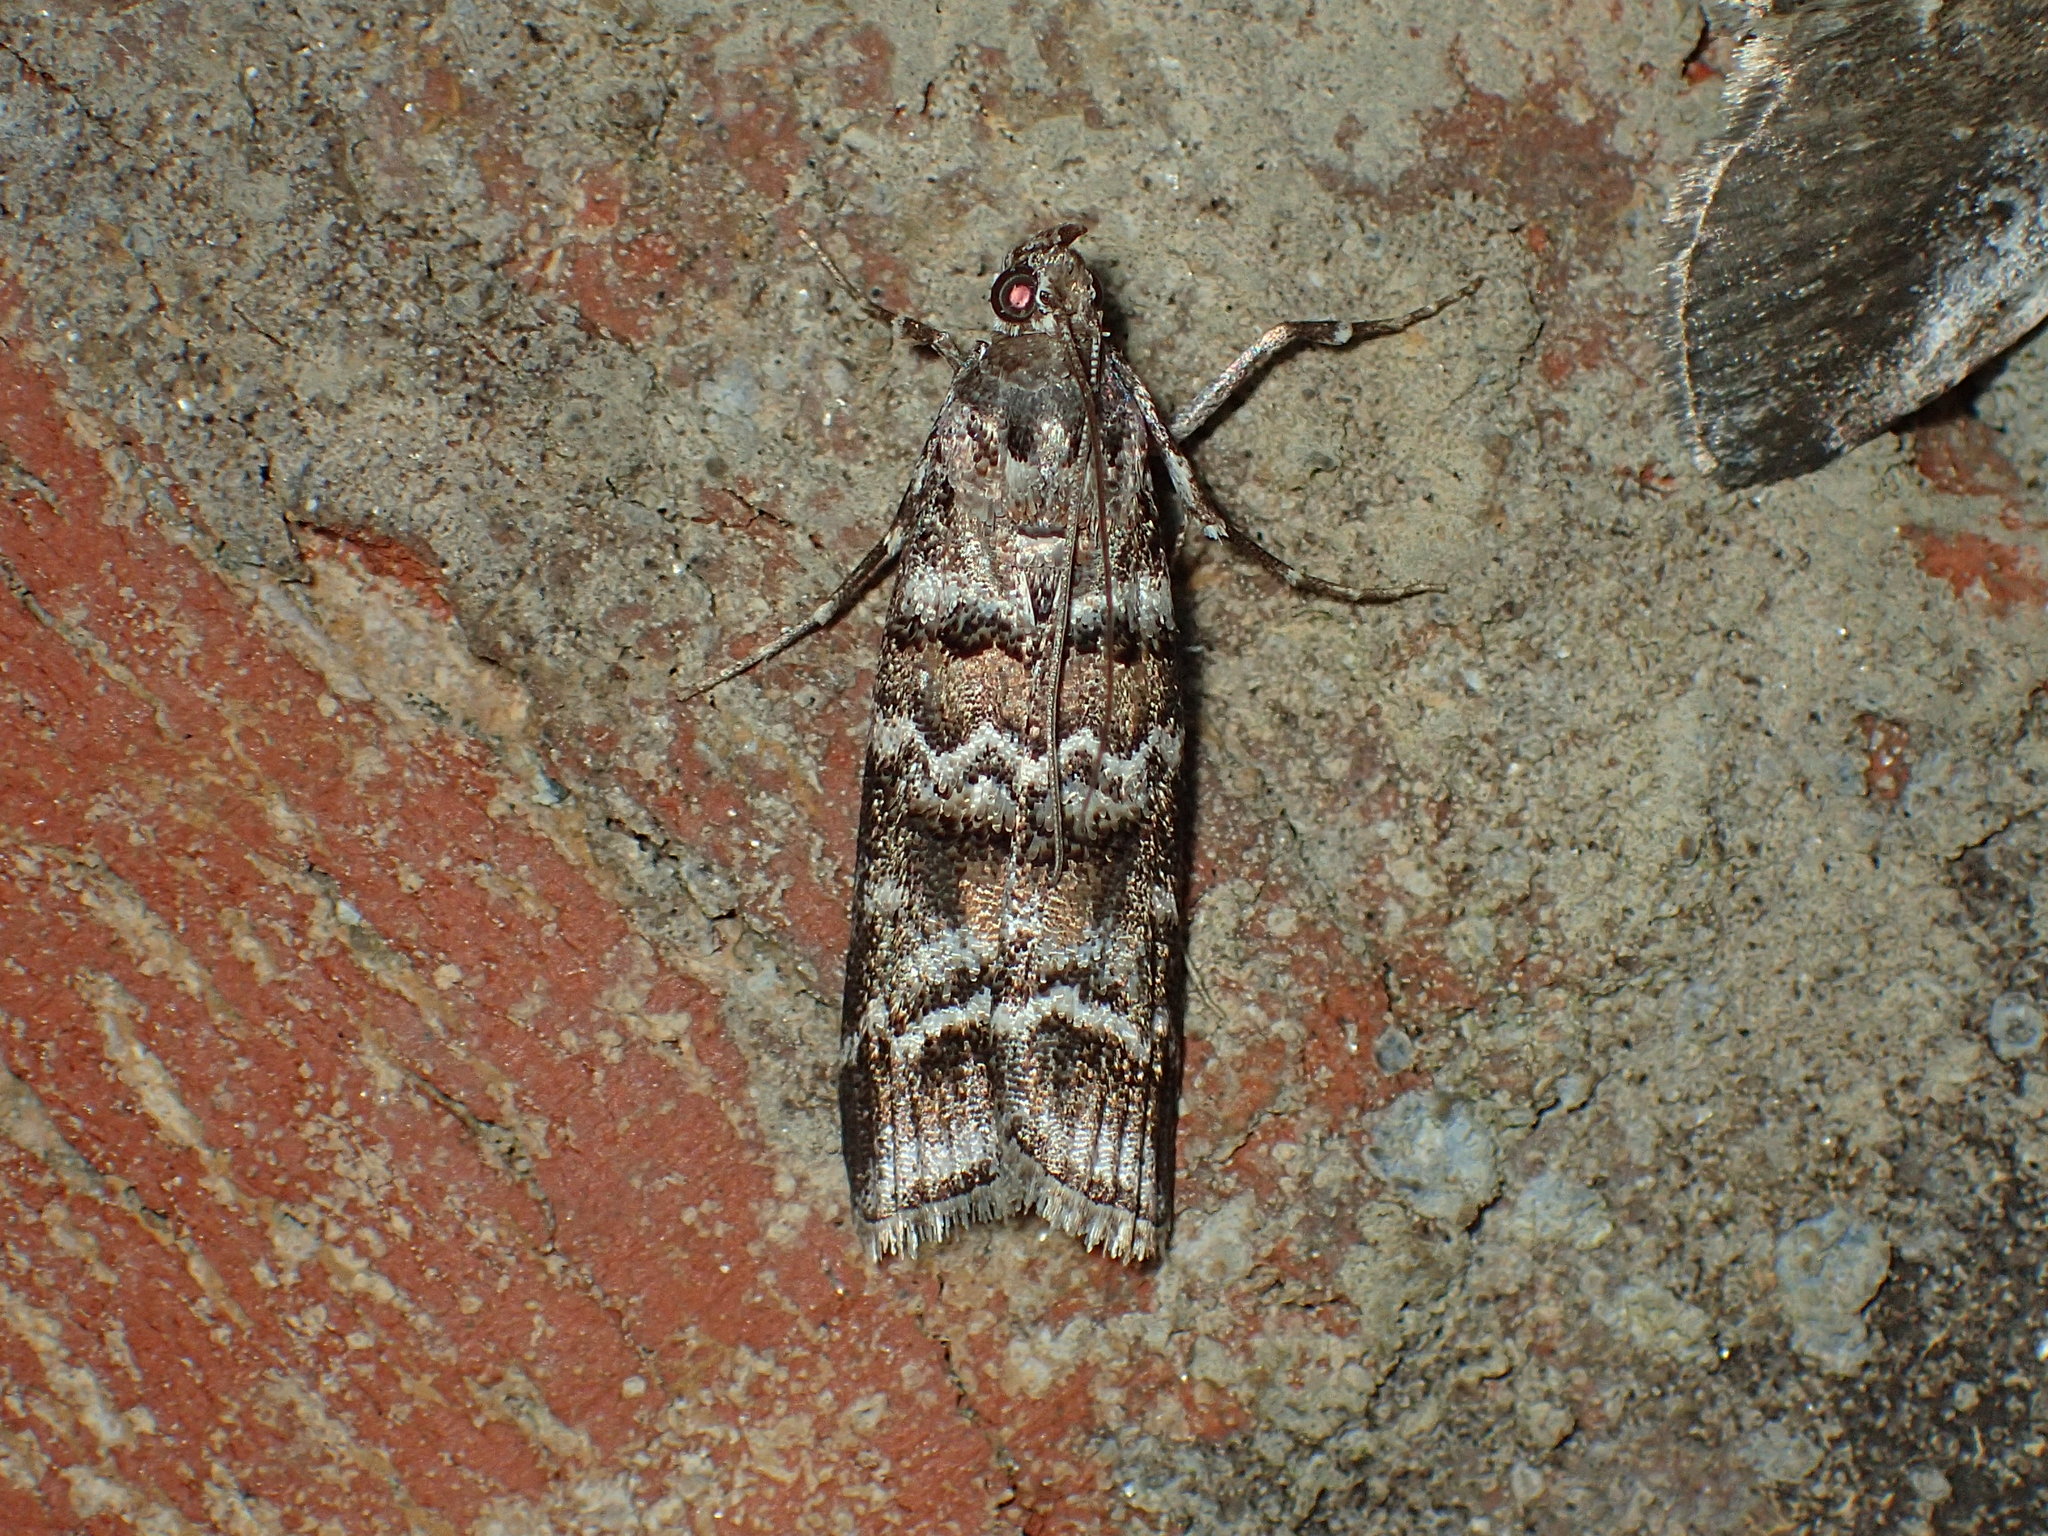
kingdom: Animalia
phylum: Arthropoda
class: Insecta
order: Lepidoptera
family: Pyralidae
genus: Dioryctria
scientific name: Dioryctria amatella
